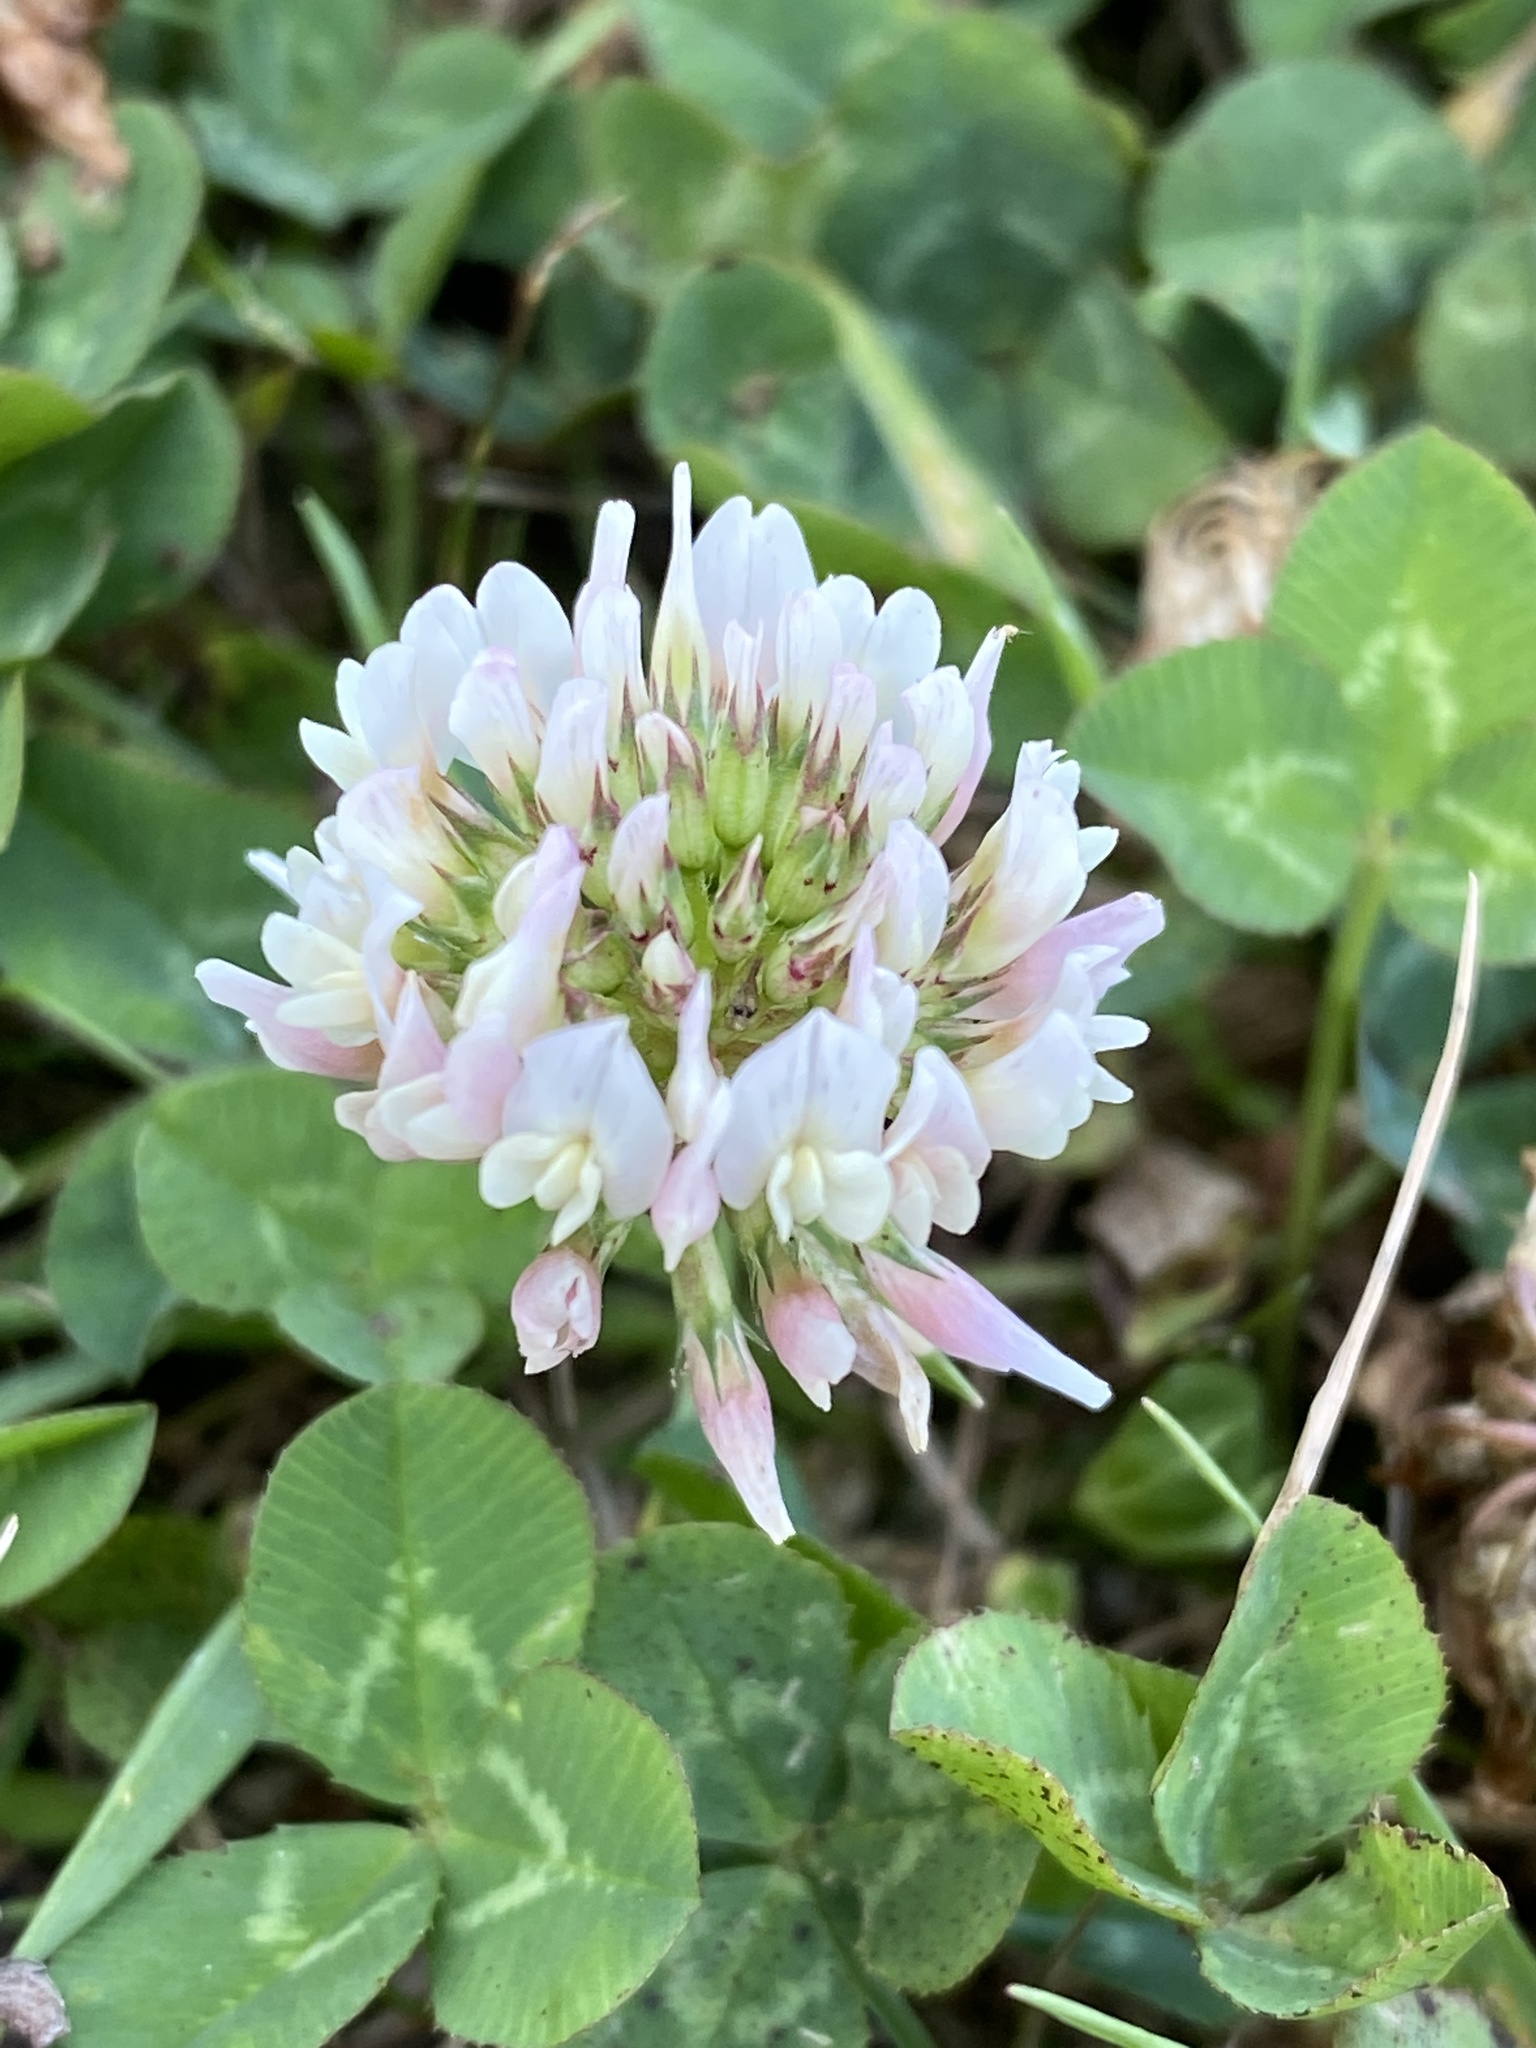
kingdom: Plantae
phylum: Tracheophyta
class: Magnoliopsida
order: Fabales
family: Fabaceae
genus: Trifolium
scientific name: Trifolium repens
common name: White clover
